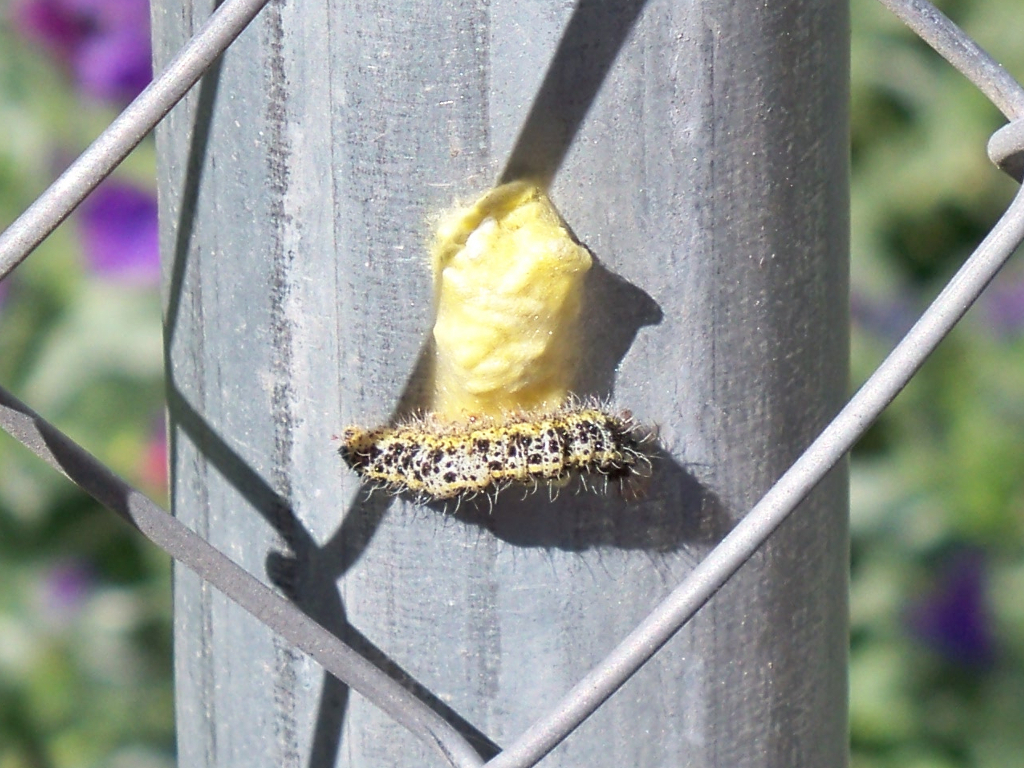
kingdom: Animalia
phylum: Arthropoda
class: Insecta
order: Lepidoptera
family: Pieridae
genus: Pieris
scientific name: Pieris brassicae
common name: Large white
